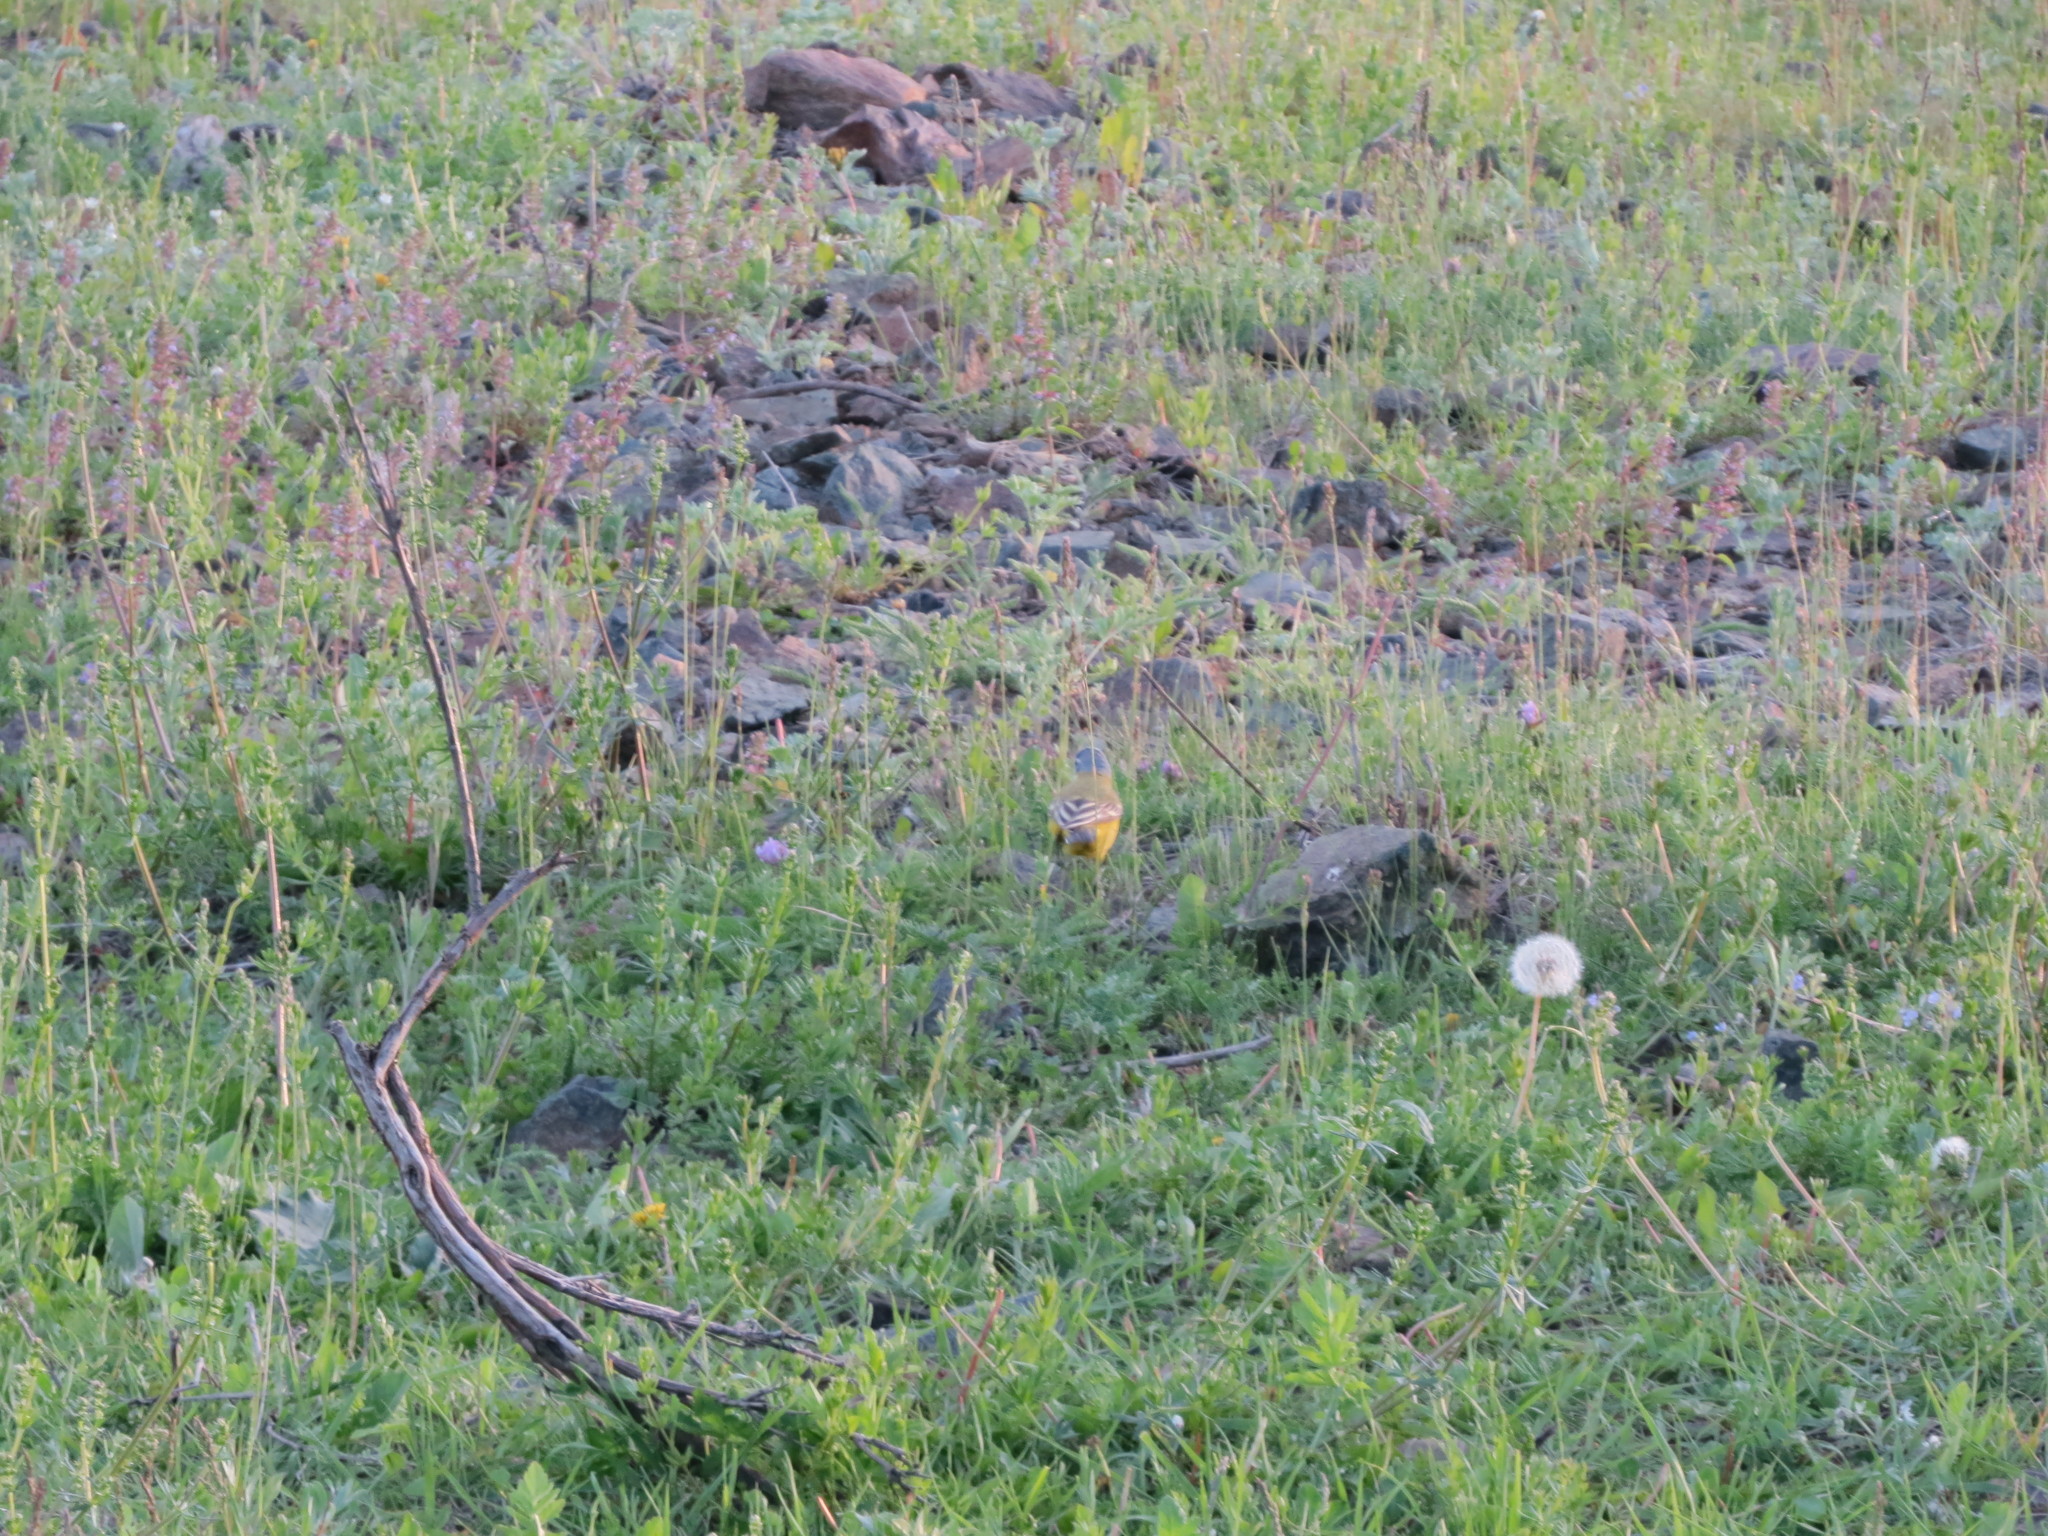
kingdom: Animalia
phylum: Chordata
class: Aves
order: Passeriformes
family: Motacillidae
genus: Motacilla
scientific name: Motacilla flava
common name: Western yellow wagtail
